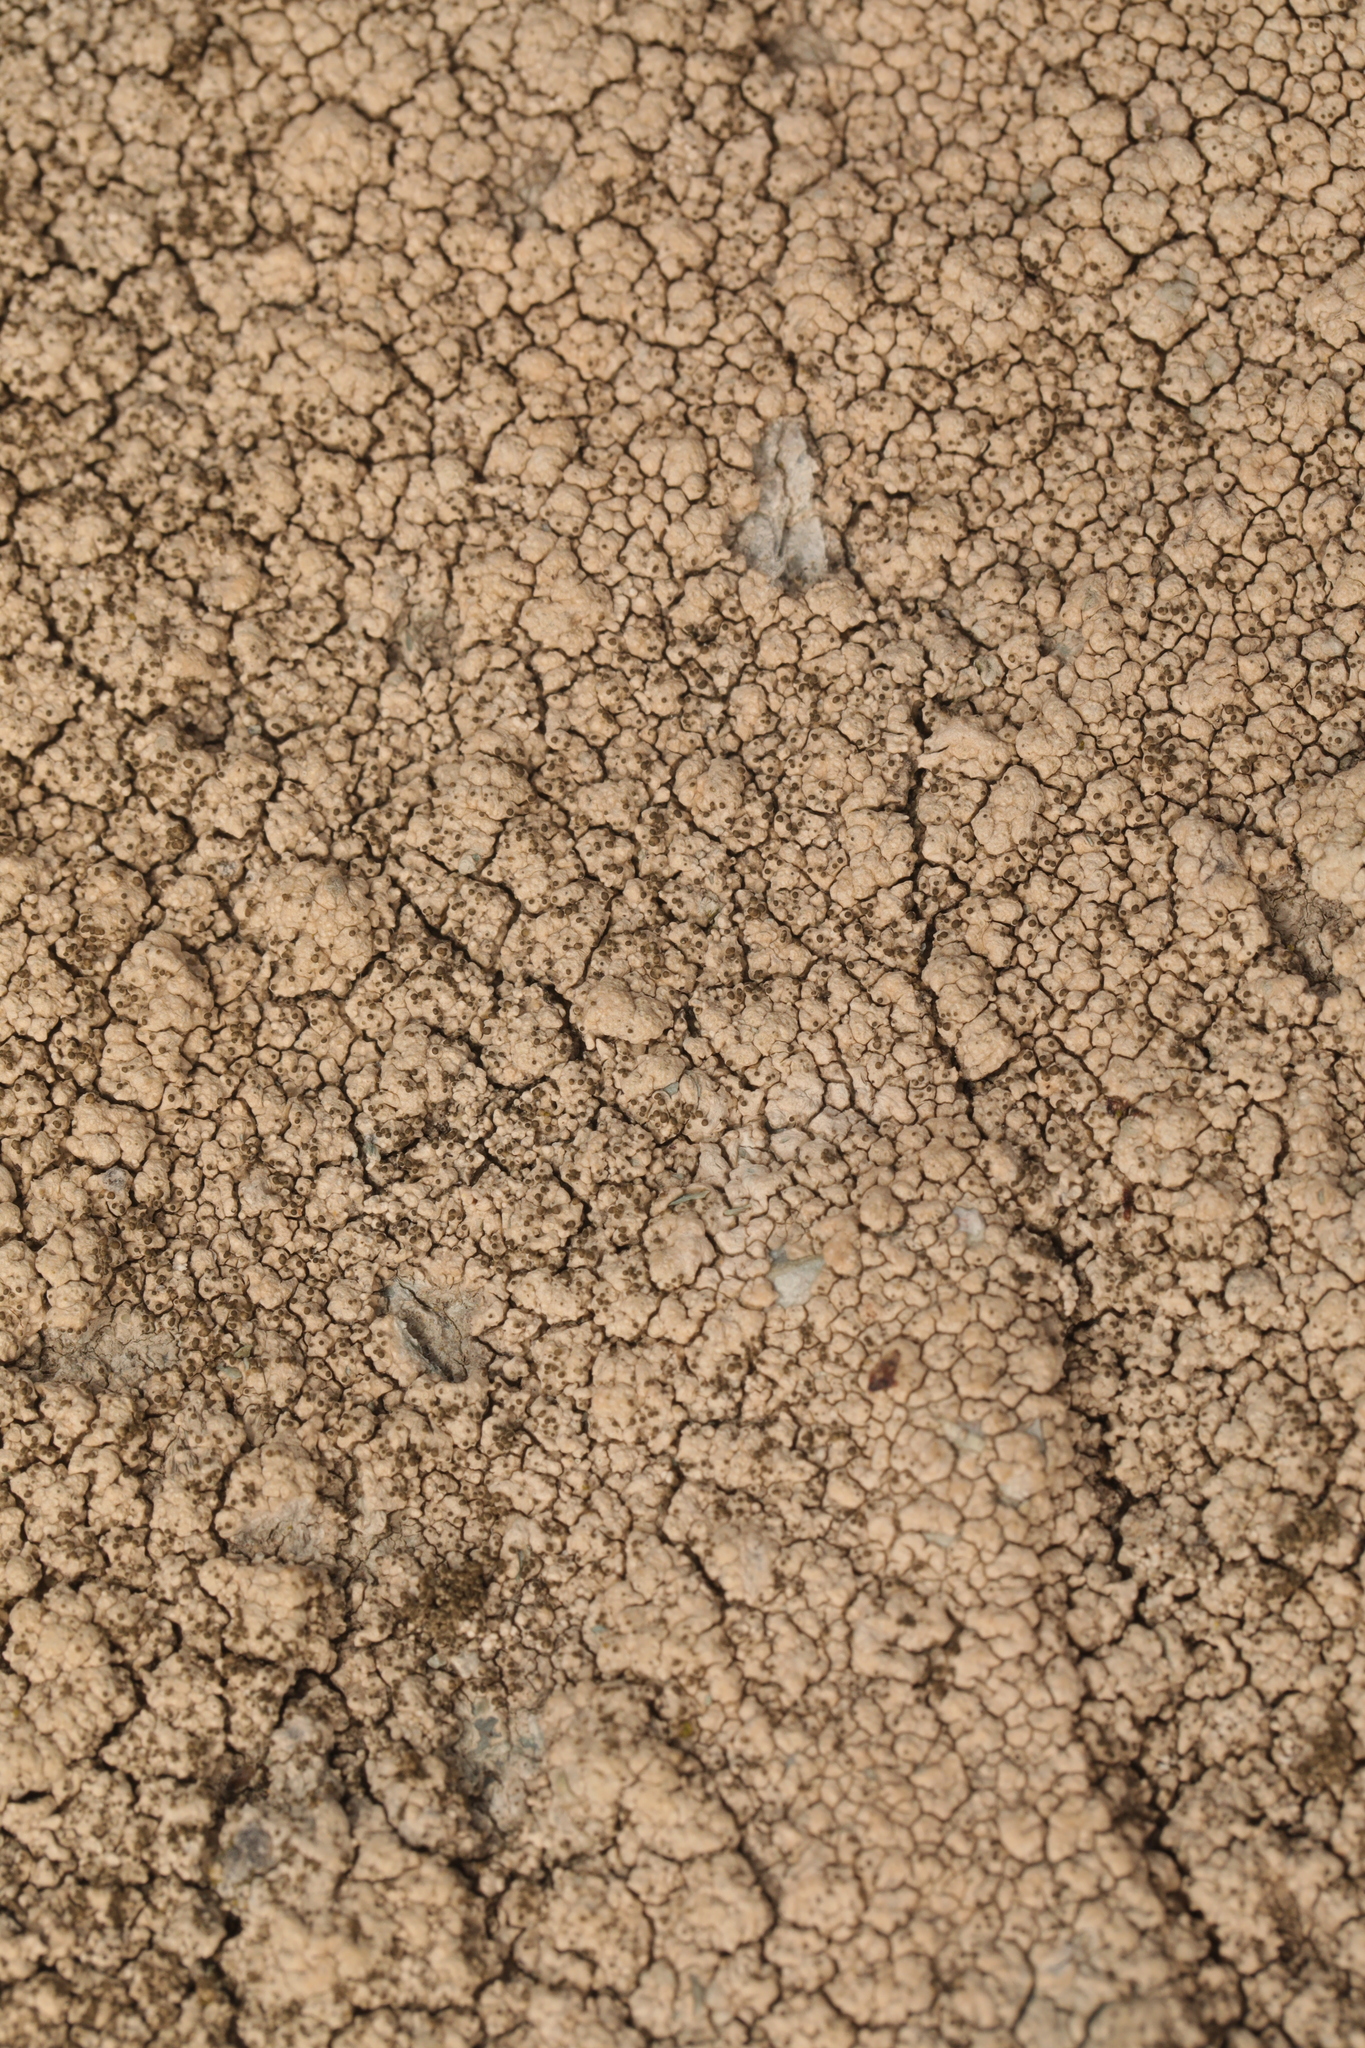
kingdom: Fungi
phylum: Ascomycota
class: Lecanoromycetes
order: Pertusariales
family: Pertusariaceae
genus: Pertusaria
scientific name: Pertusaria pseudocorallina
